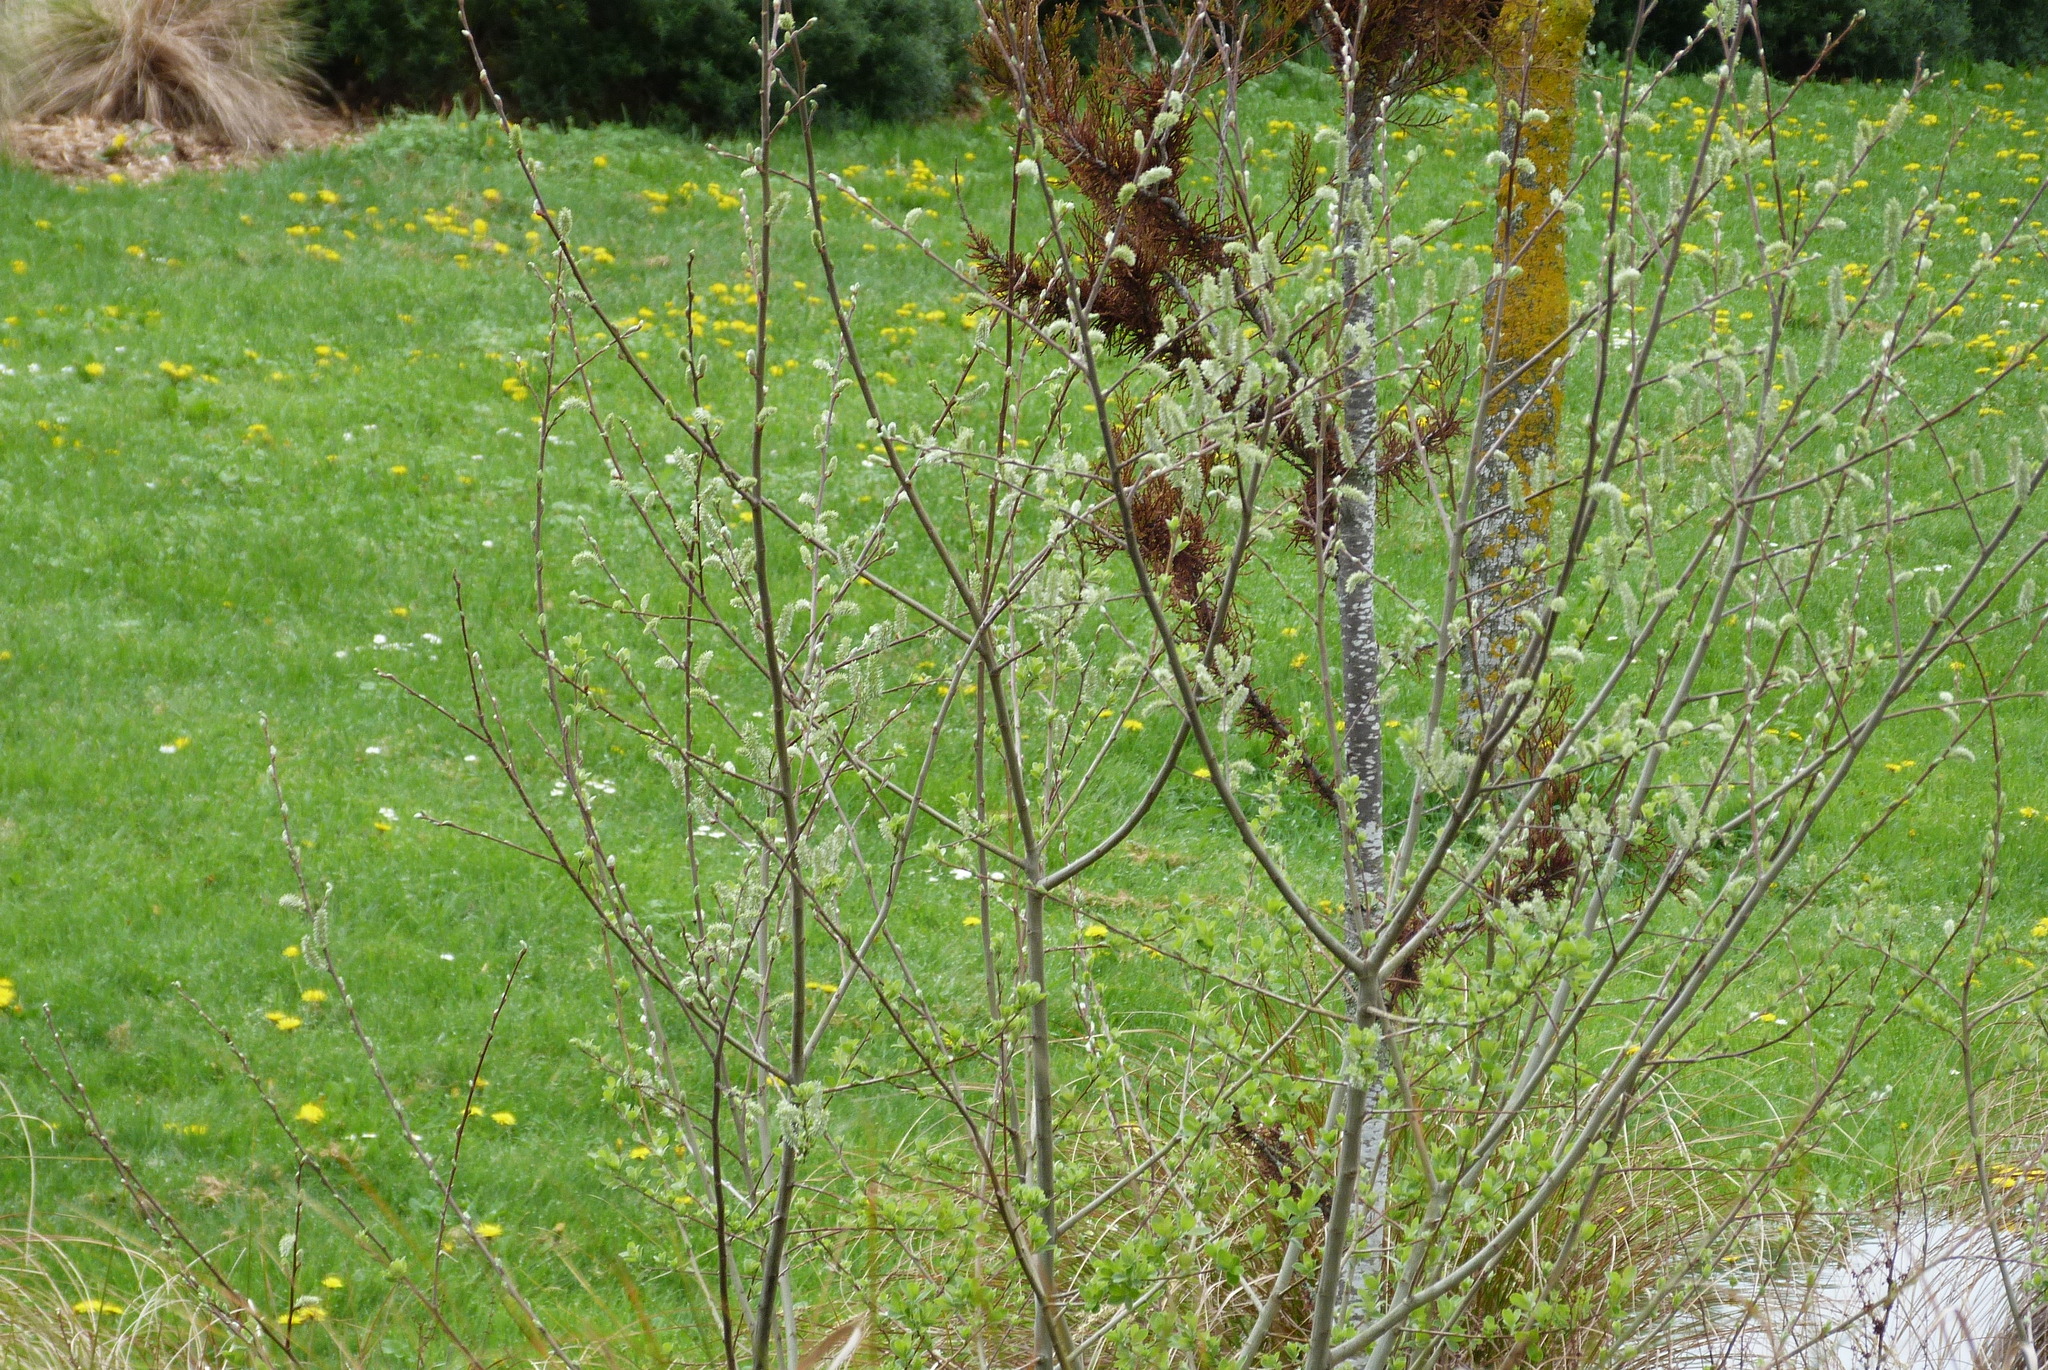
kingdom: Plantae
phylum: Tracheophyta
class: Magnoliopsida
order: Malpighiales
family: Salicaceae
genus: Salix
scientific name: Salix cinerea
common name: Common sallow
